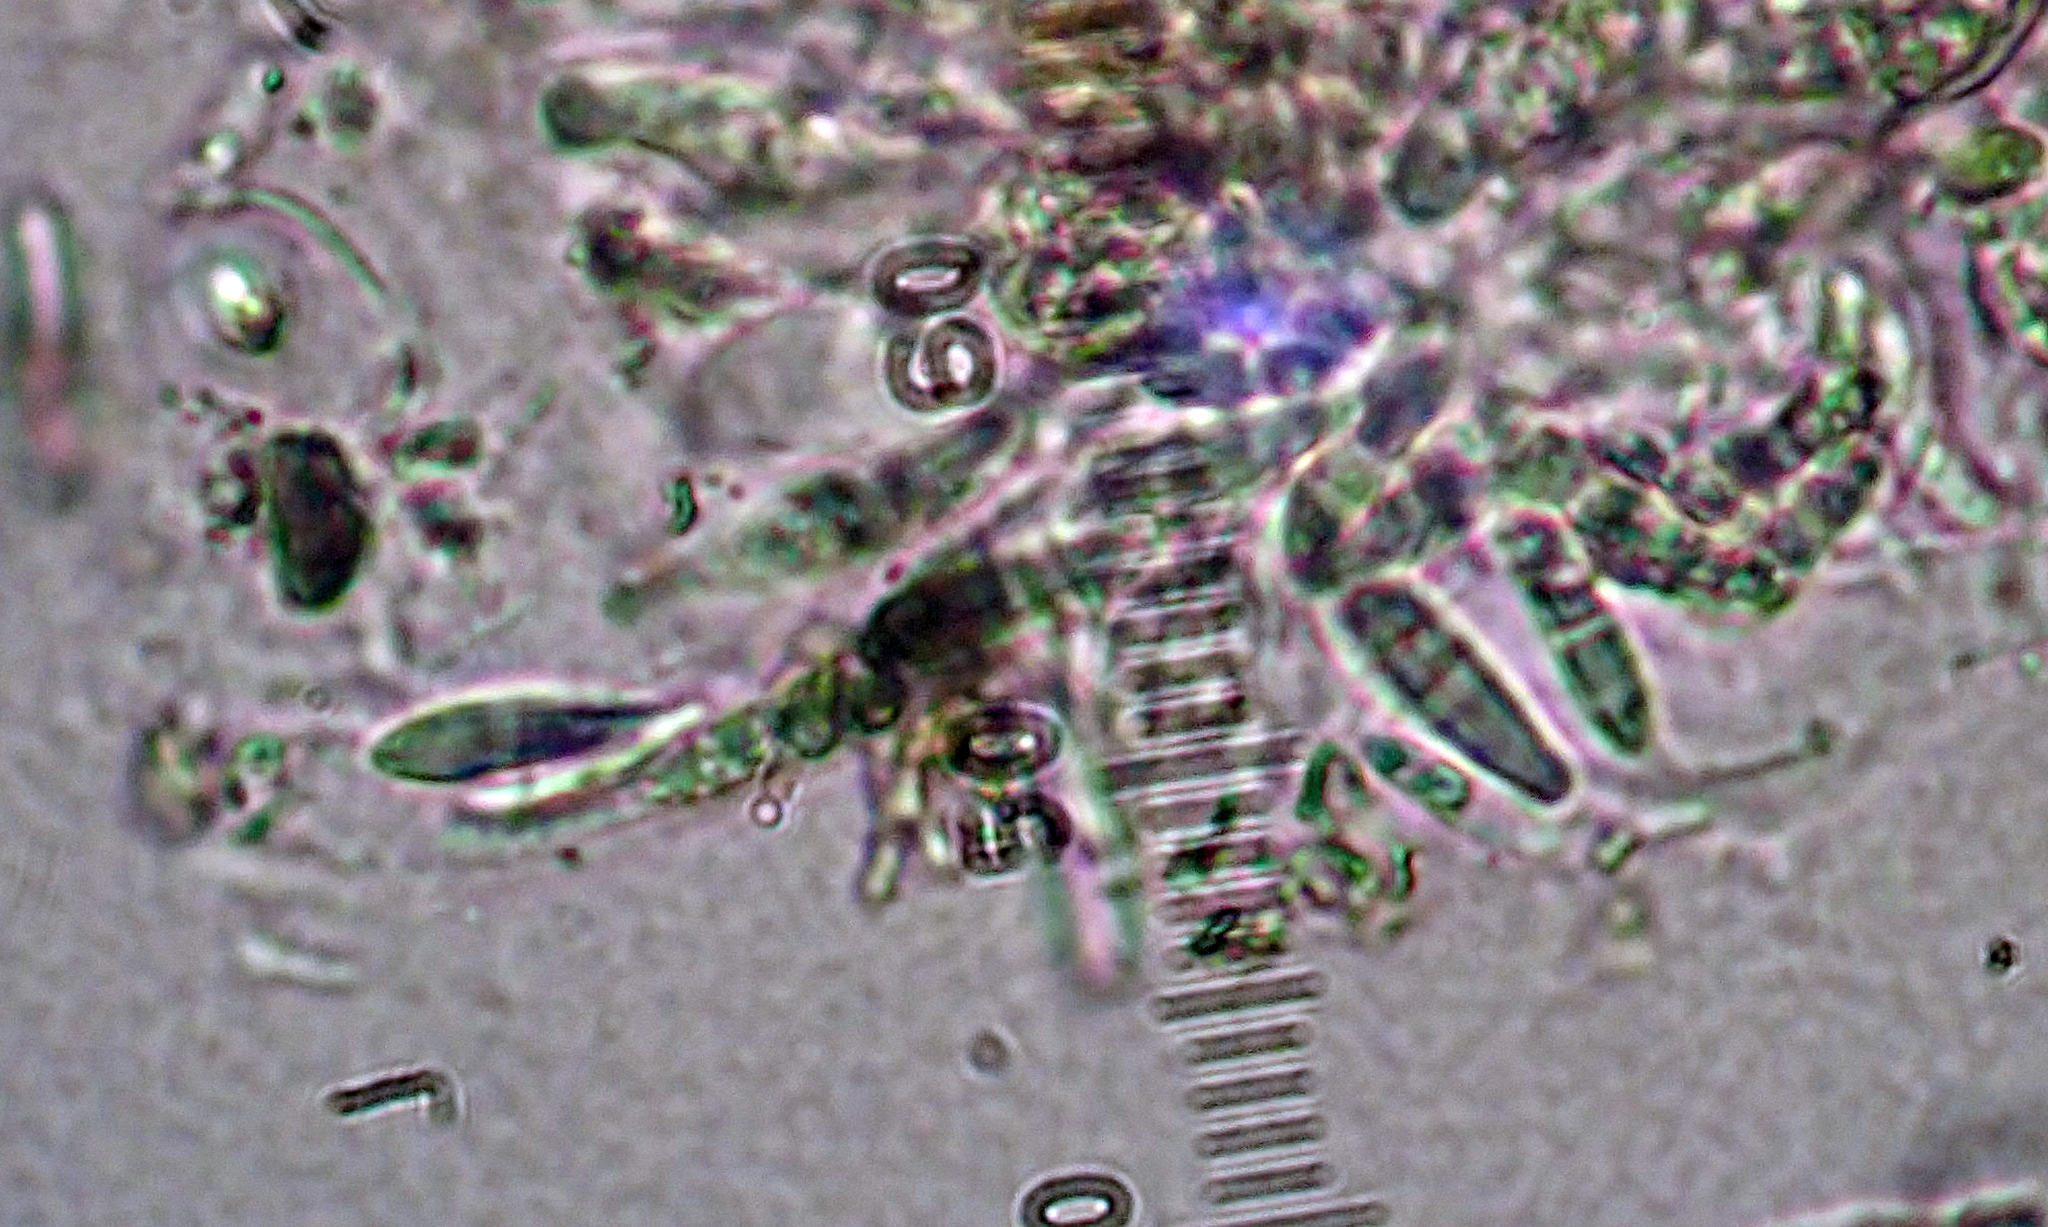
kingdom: Fungi
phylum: Ascomycota
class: Dothideomycetes
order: Pleosporales
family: Arthopyreniaceae
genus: Arthopyrenia
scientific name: Arthopyrenia
